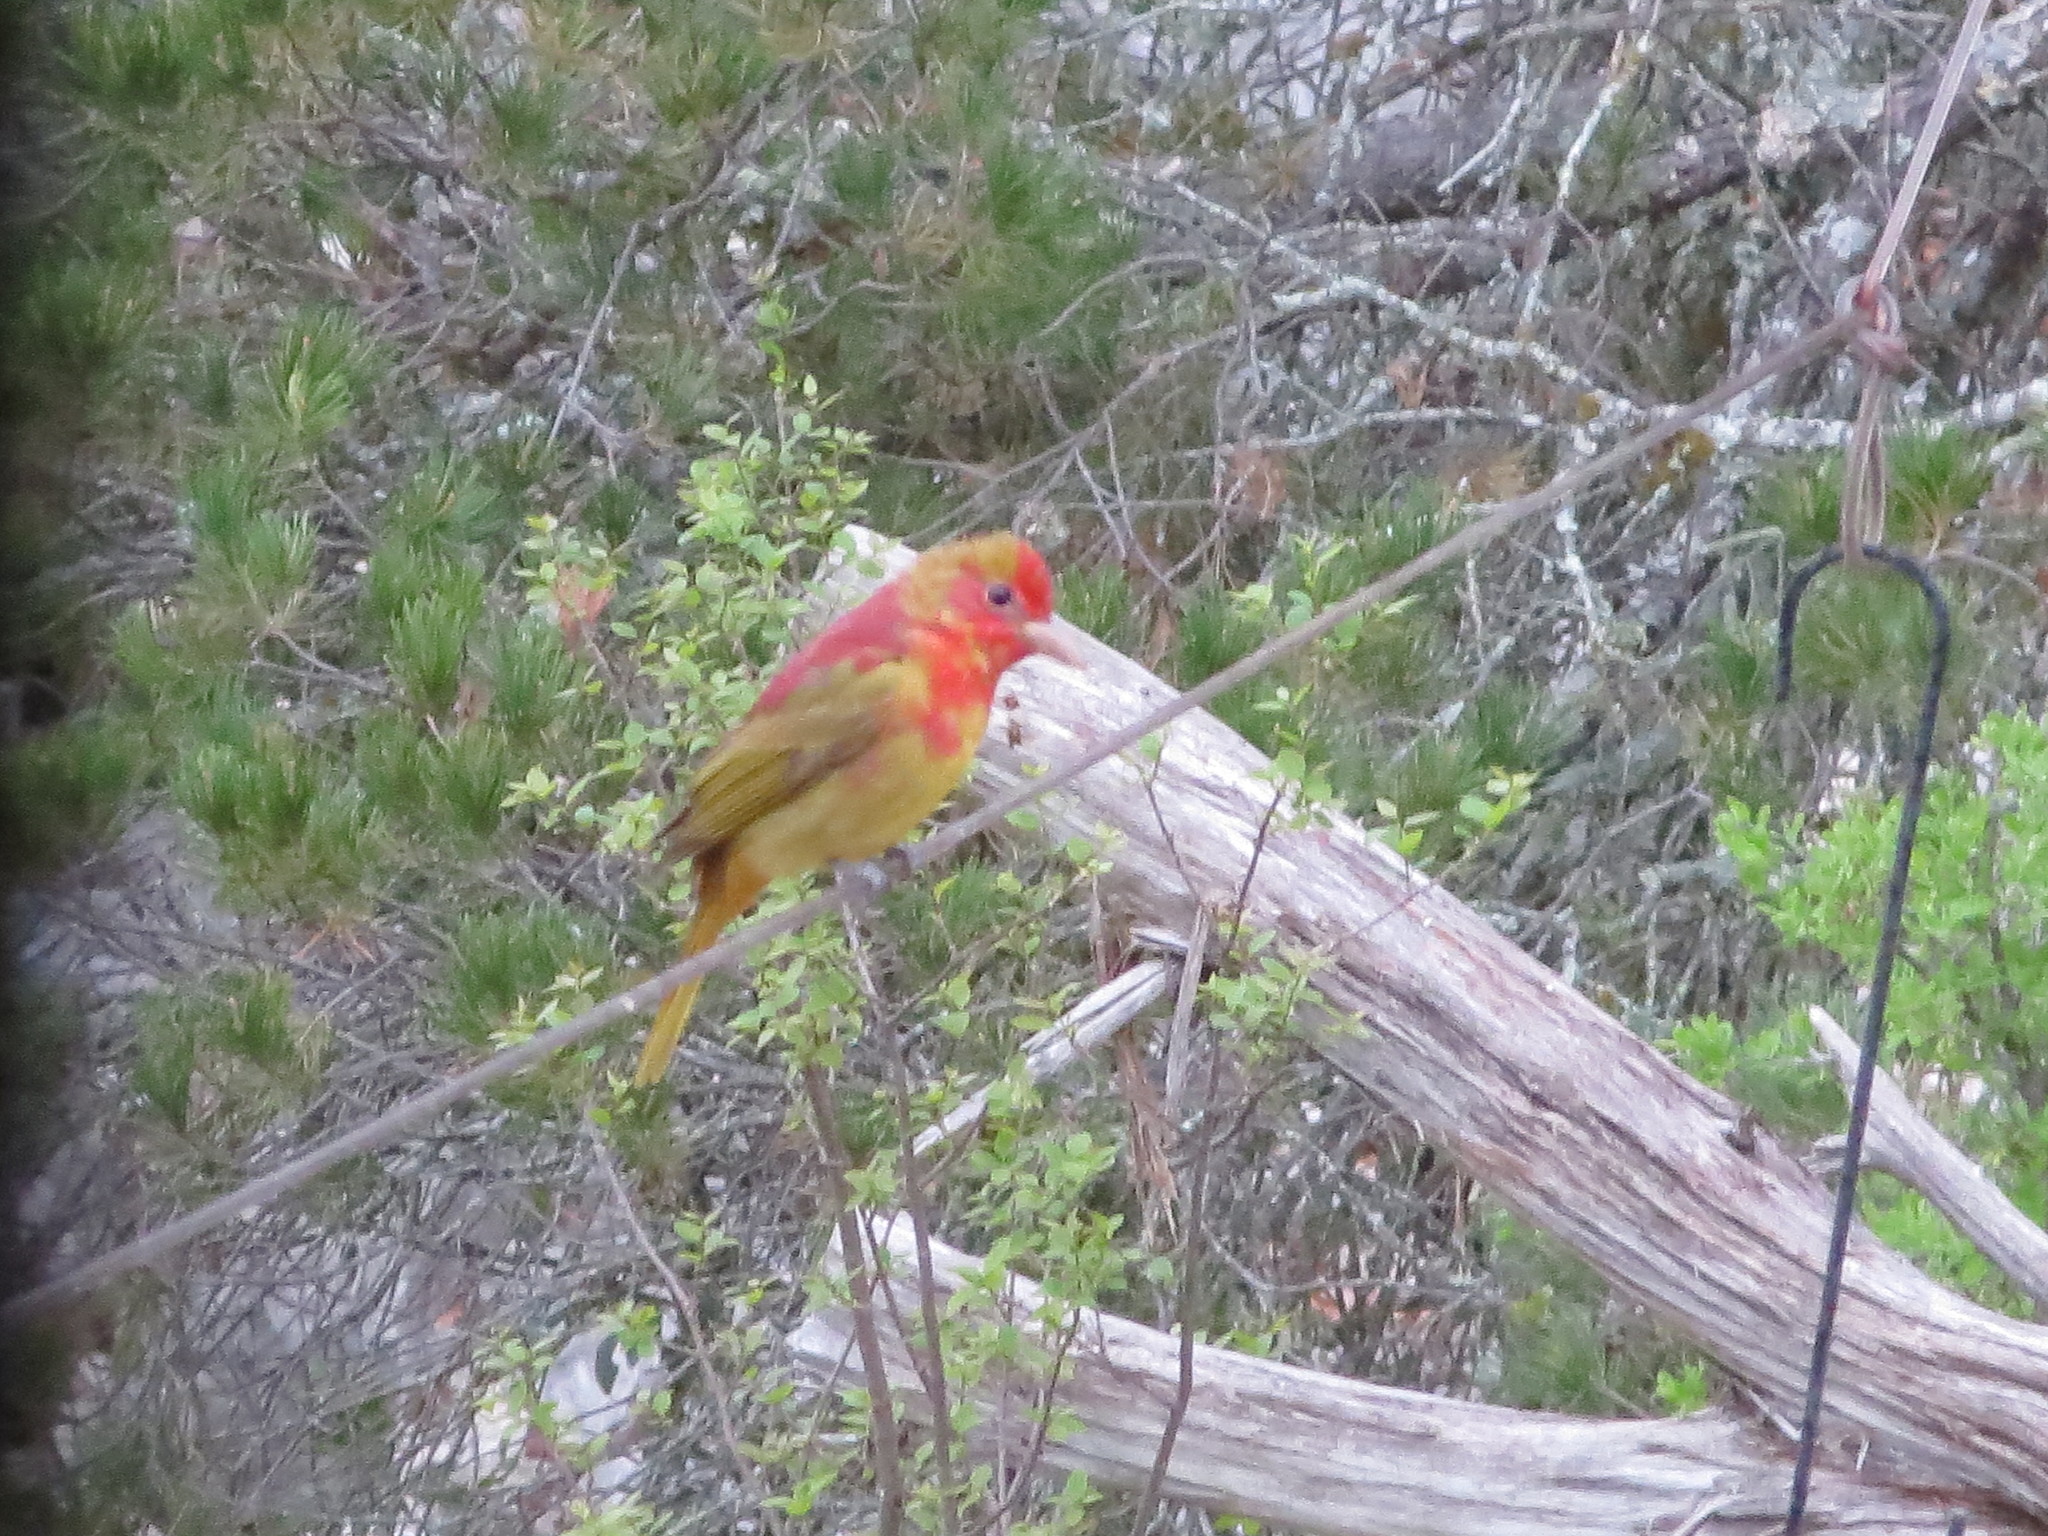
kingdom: Animalia
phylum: Chordata
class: Aves
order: Passeriformes
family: Cardinalidae
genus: Piranga
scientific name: Piranga rubra
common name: Summer tanager
